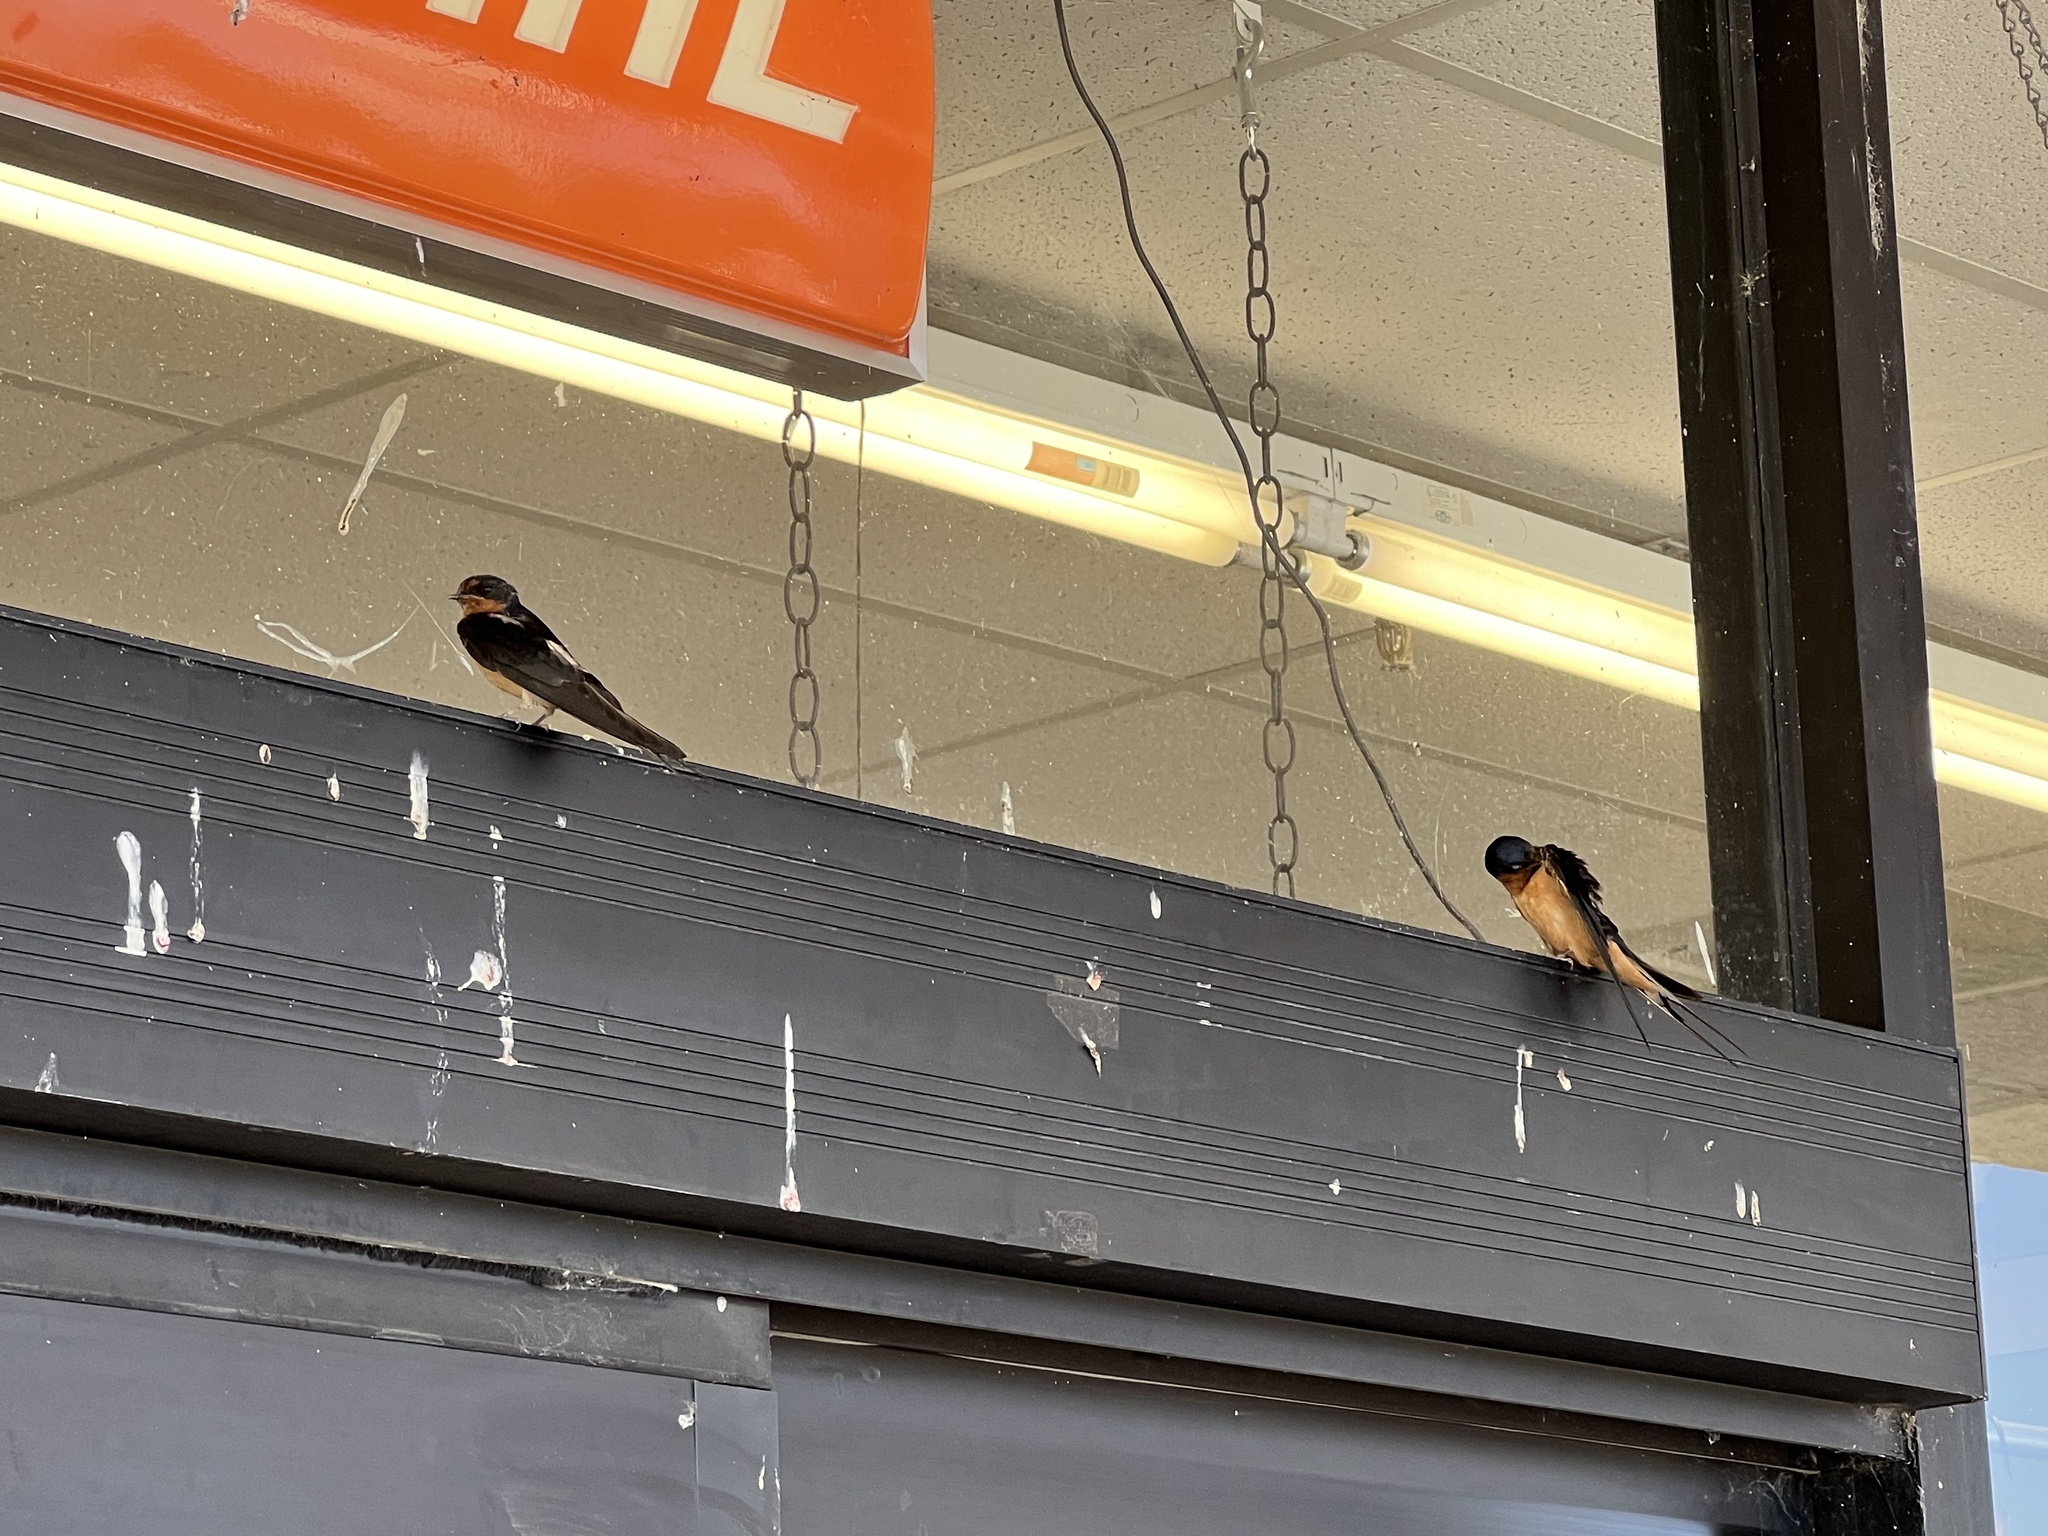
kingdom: Animalia
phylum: Chordata
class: Aves
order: Passeriformes
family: Hirundinidae
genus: Hirundo
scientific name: Hirundo rustica
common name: Barn swallow
